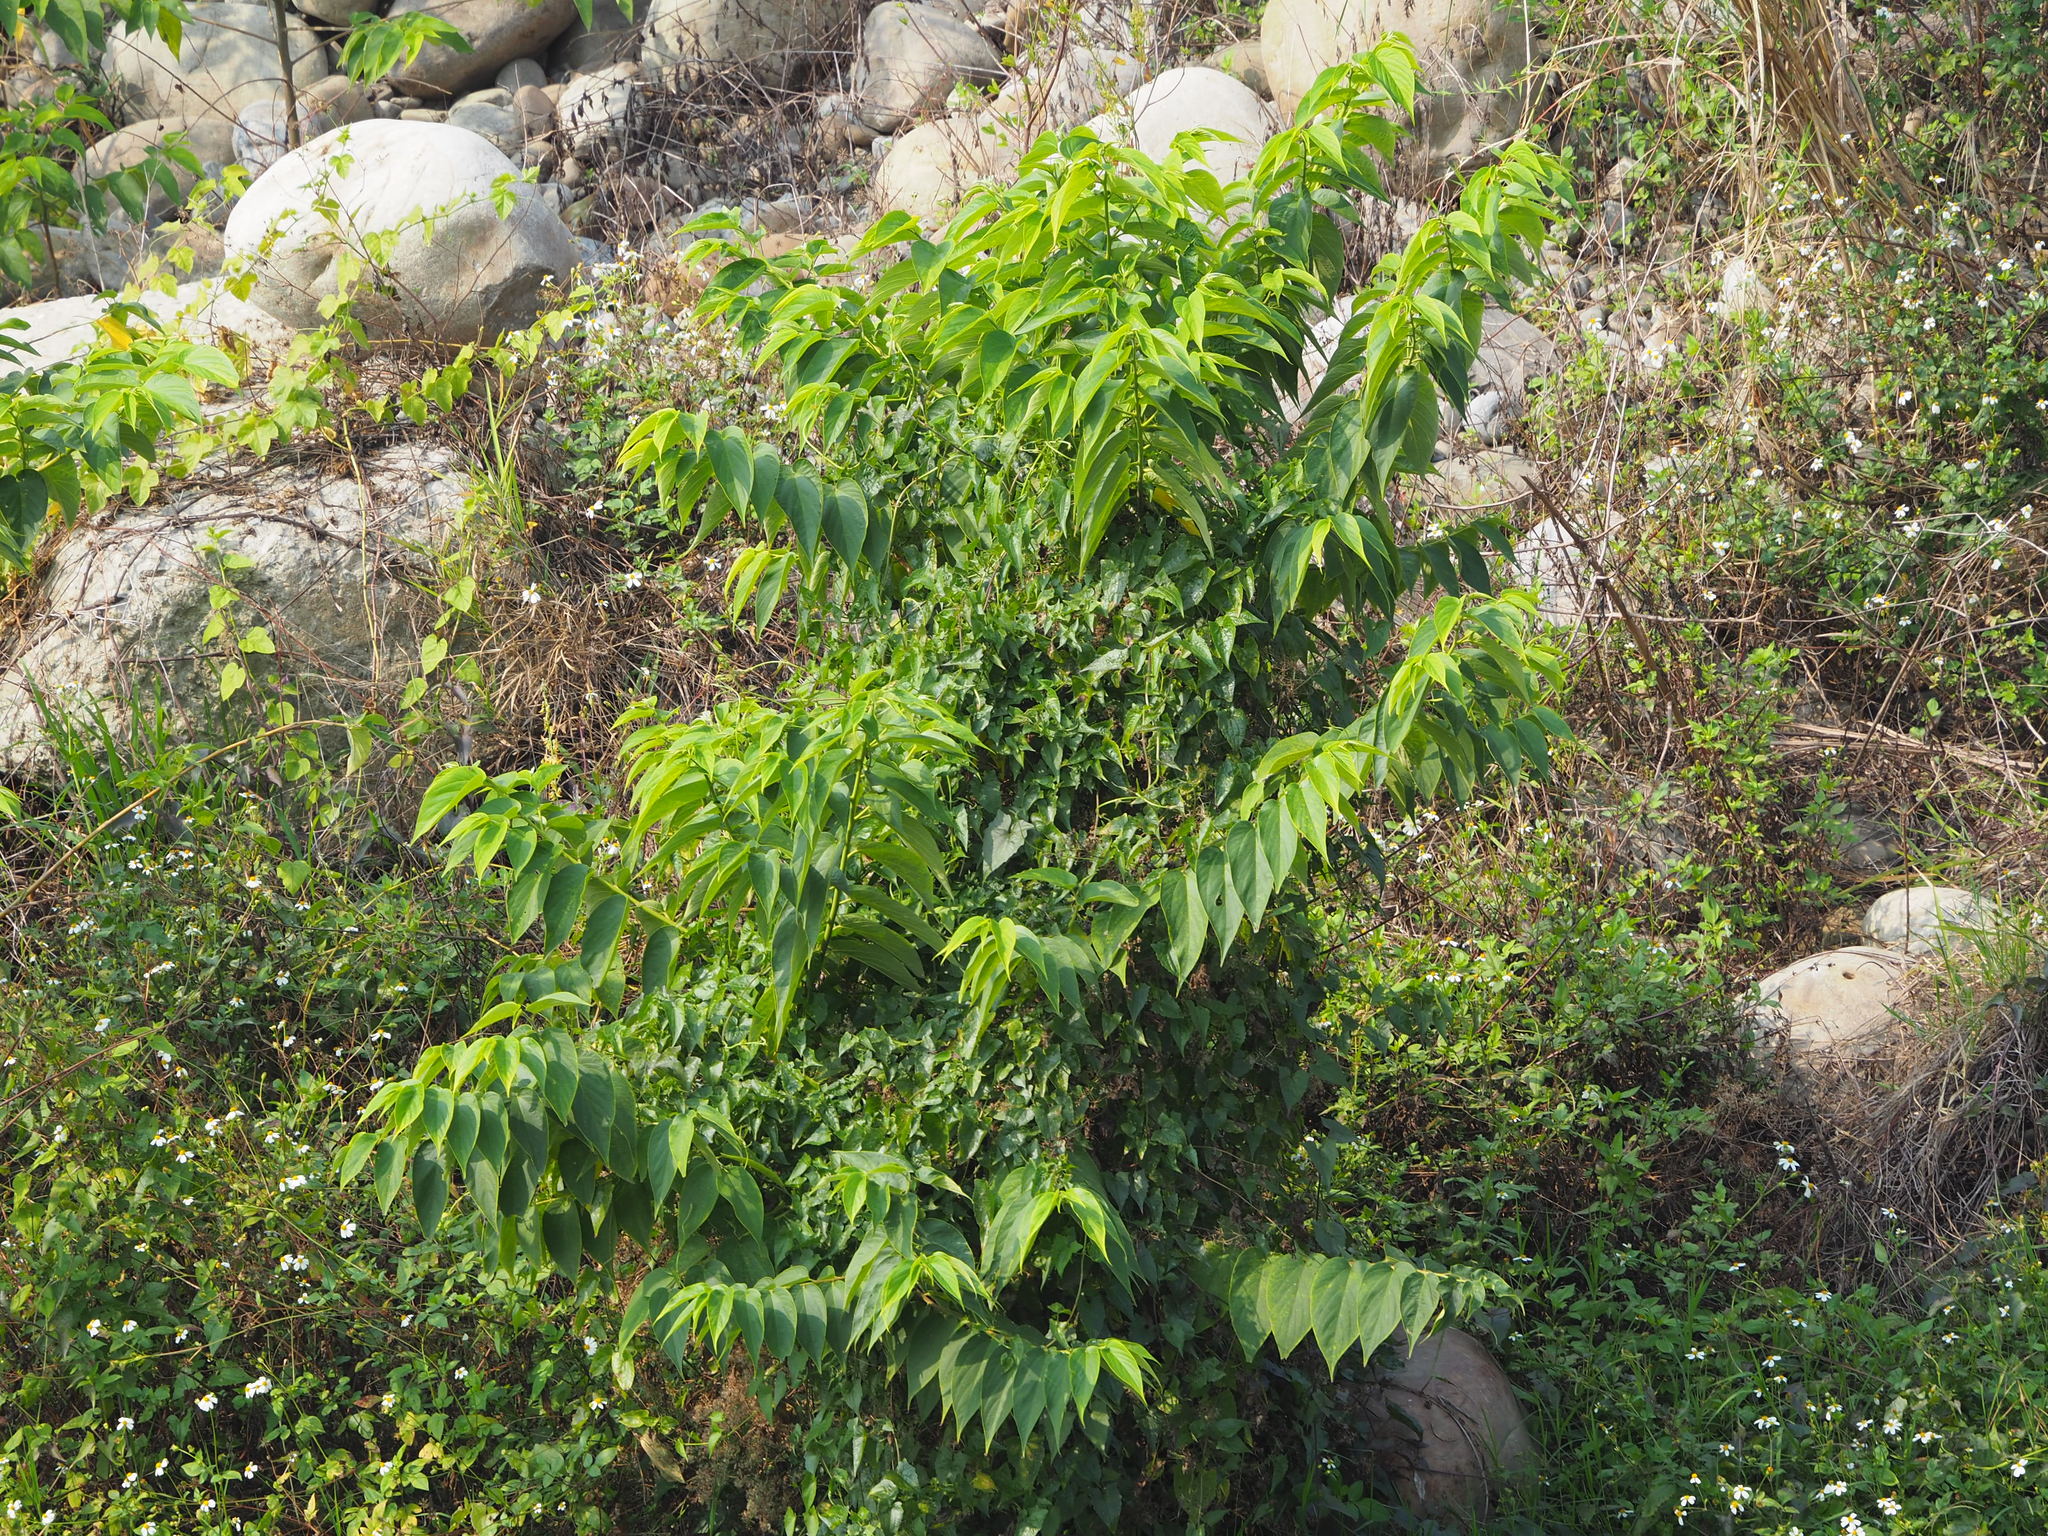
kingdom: Plantae
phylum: Tracheophyta
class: Magnoliopsida
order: Rosales
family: Cannabaceae
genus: Trema
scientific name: Trema orientale
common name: Indian charcoal tree
